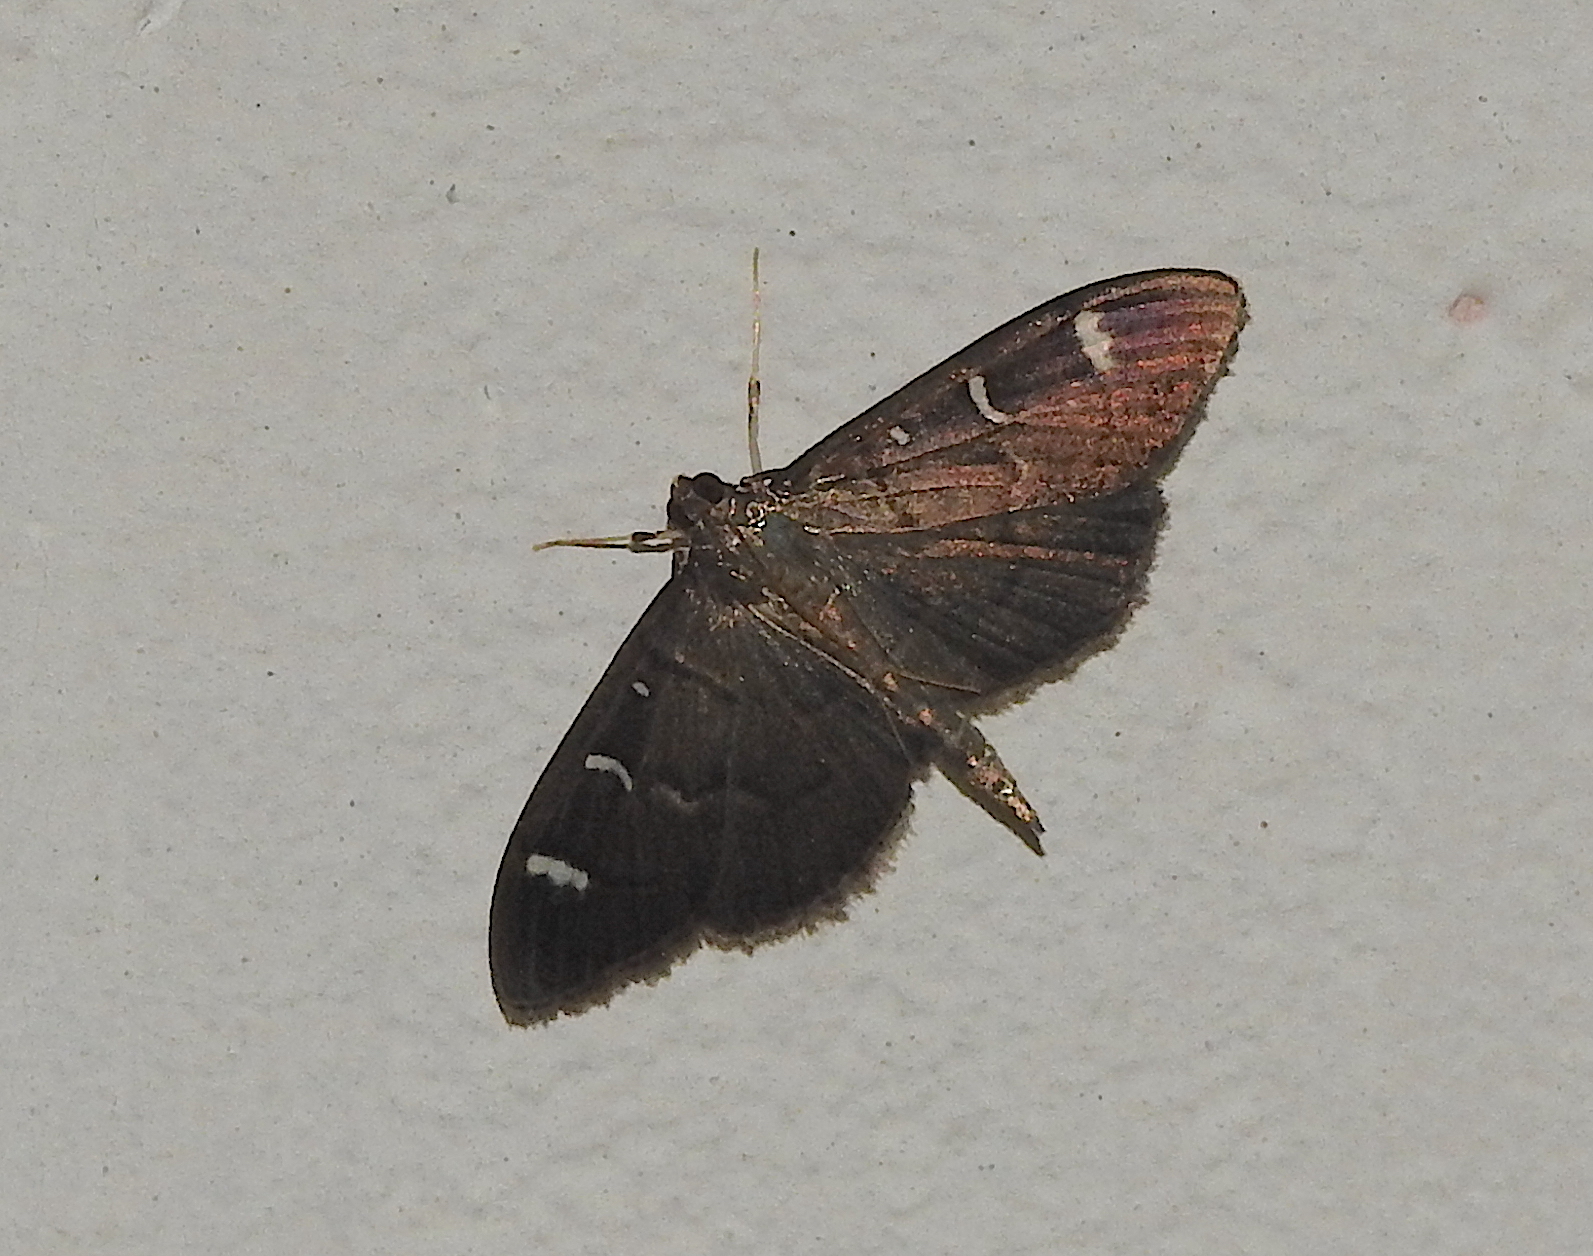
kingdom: Animalia
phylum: Arthropoda
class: Insecta
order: Lepidoptera
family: Crambidae
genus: Syllepte
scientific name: Syllepte adductalis
